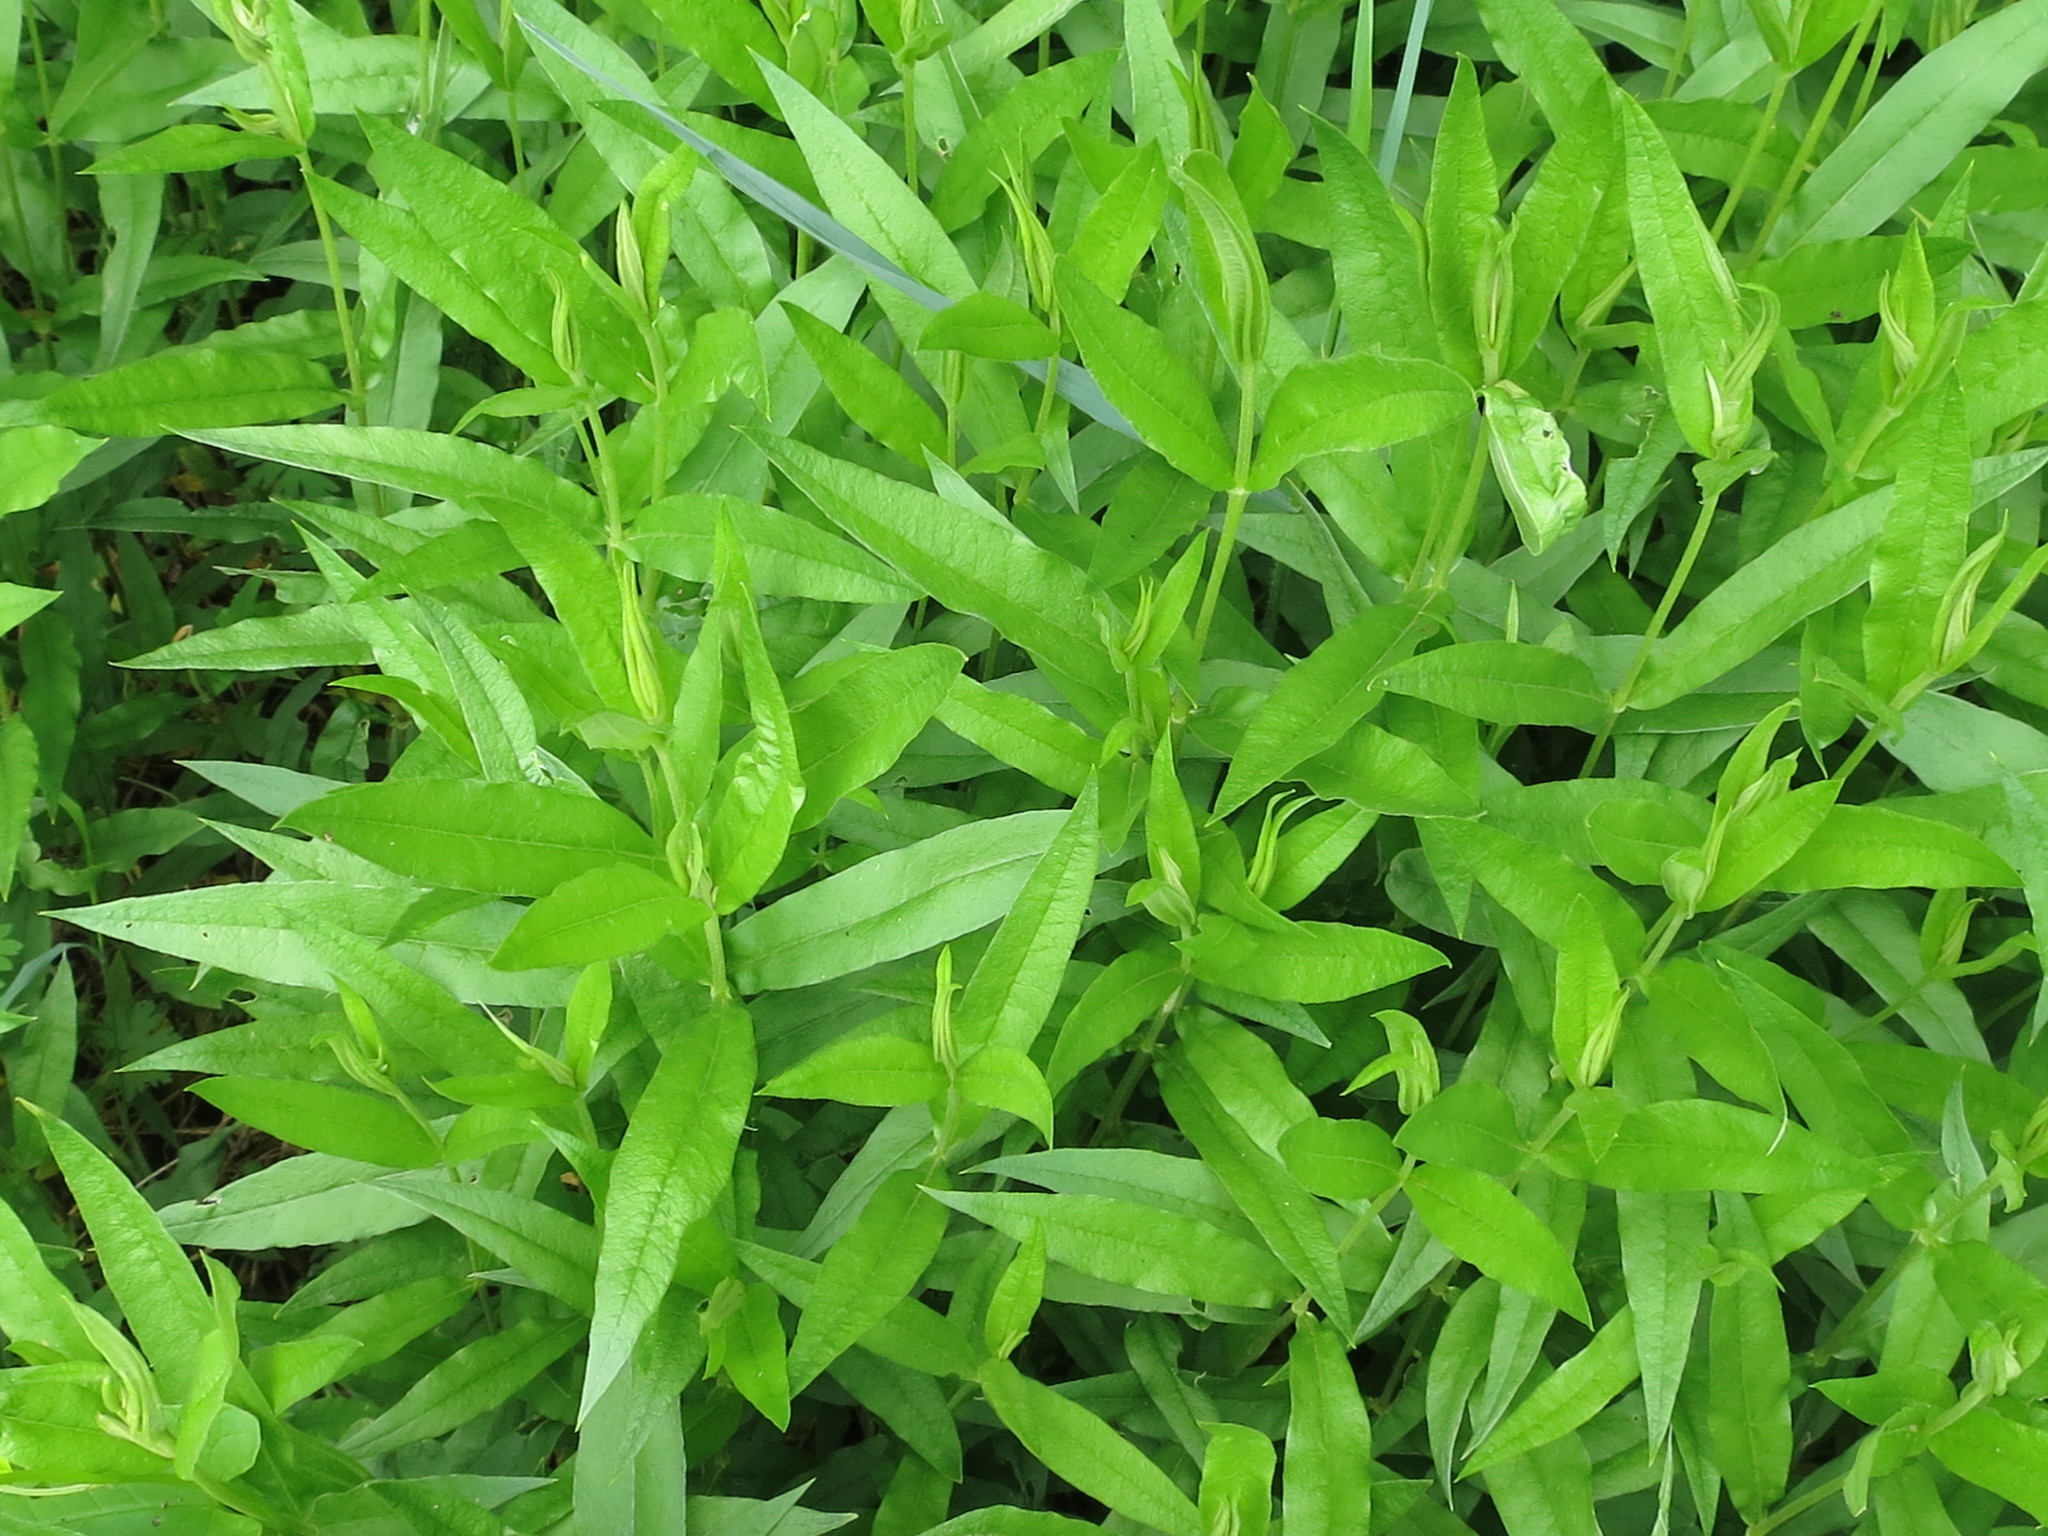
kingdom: Plantae
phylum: Tracheophyta
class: Magnoliopsida
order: Caryophyllales
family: Caryophyllaceae
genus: Stellaria
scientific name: Stellaria radians
